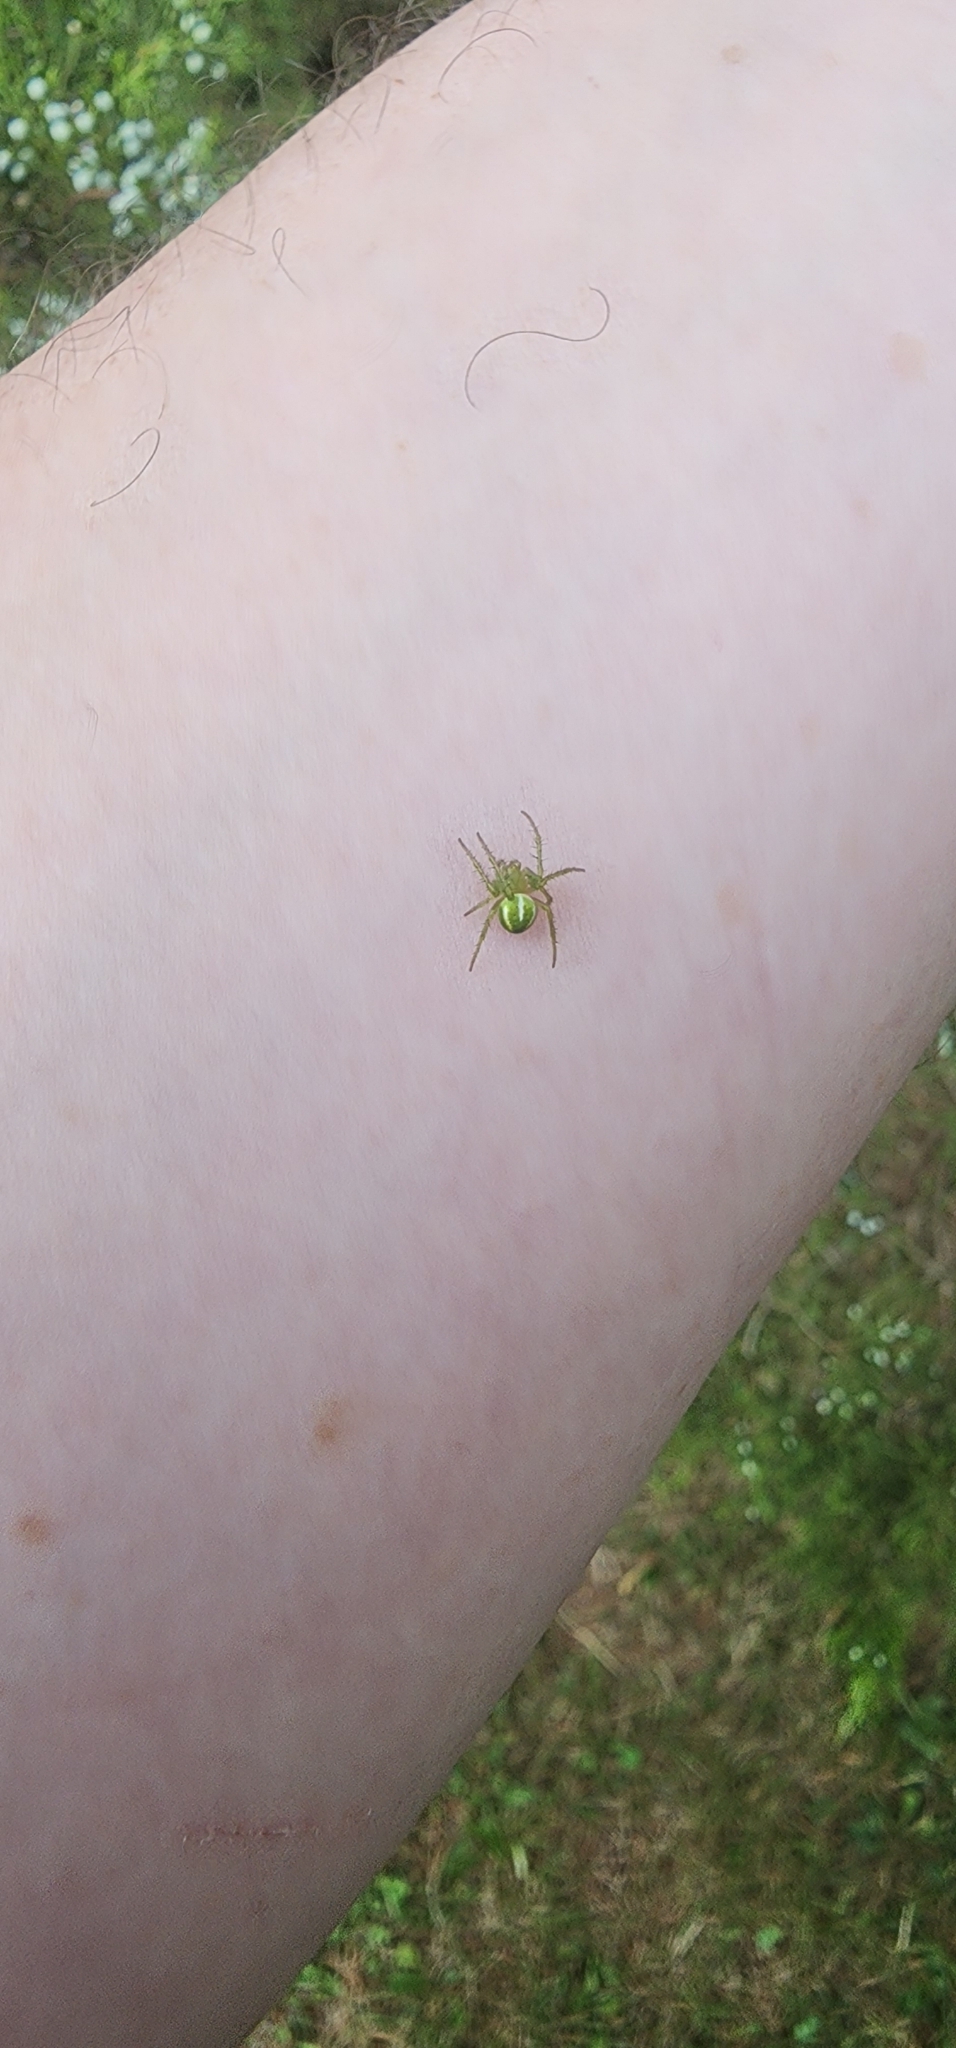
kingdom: Animalia
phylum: Arthropoda
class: Arachnida
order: Araneae
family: Araneidae
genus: Araneus
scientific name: Araneus juniperi
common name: Juniper orbweaver
